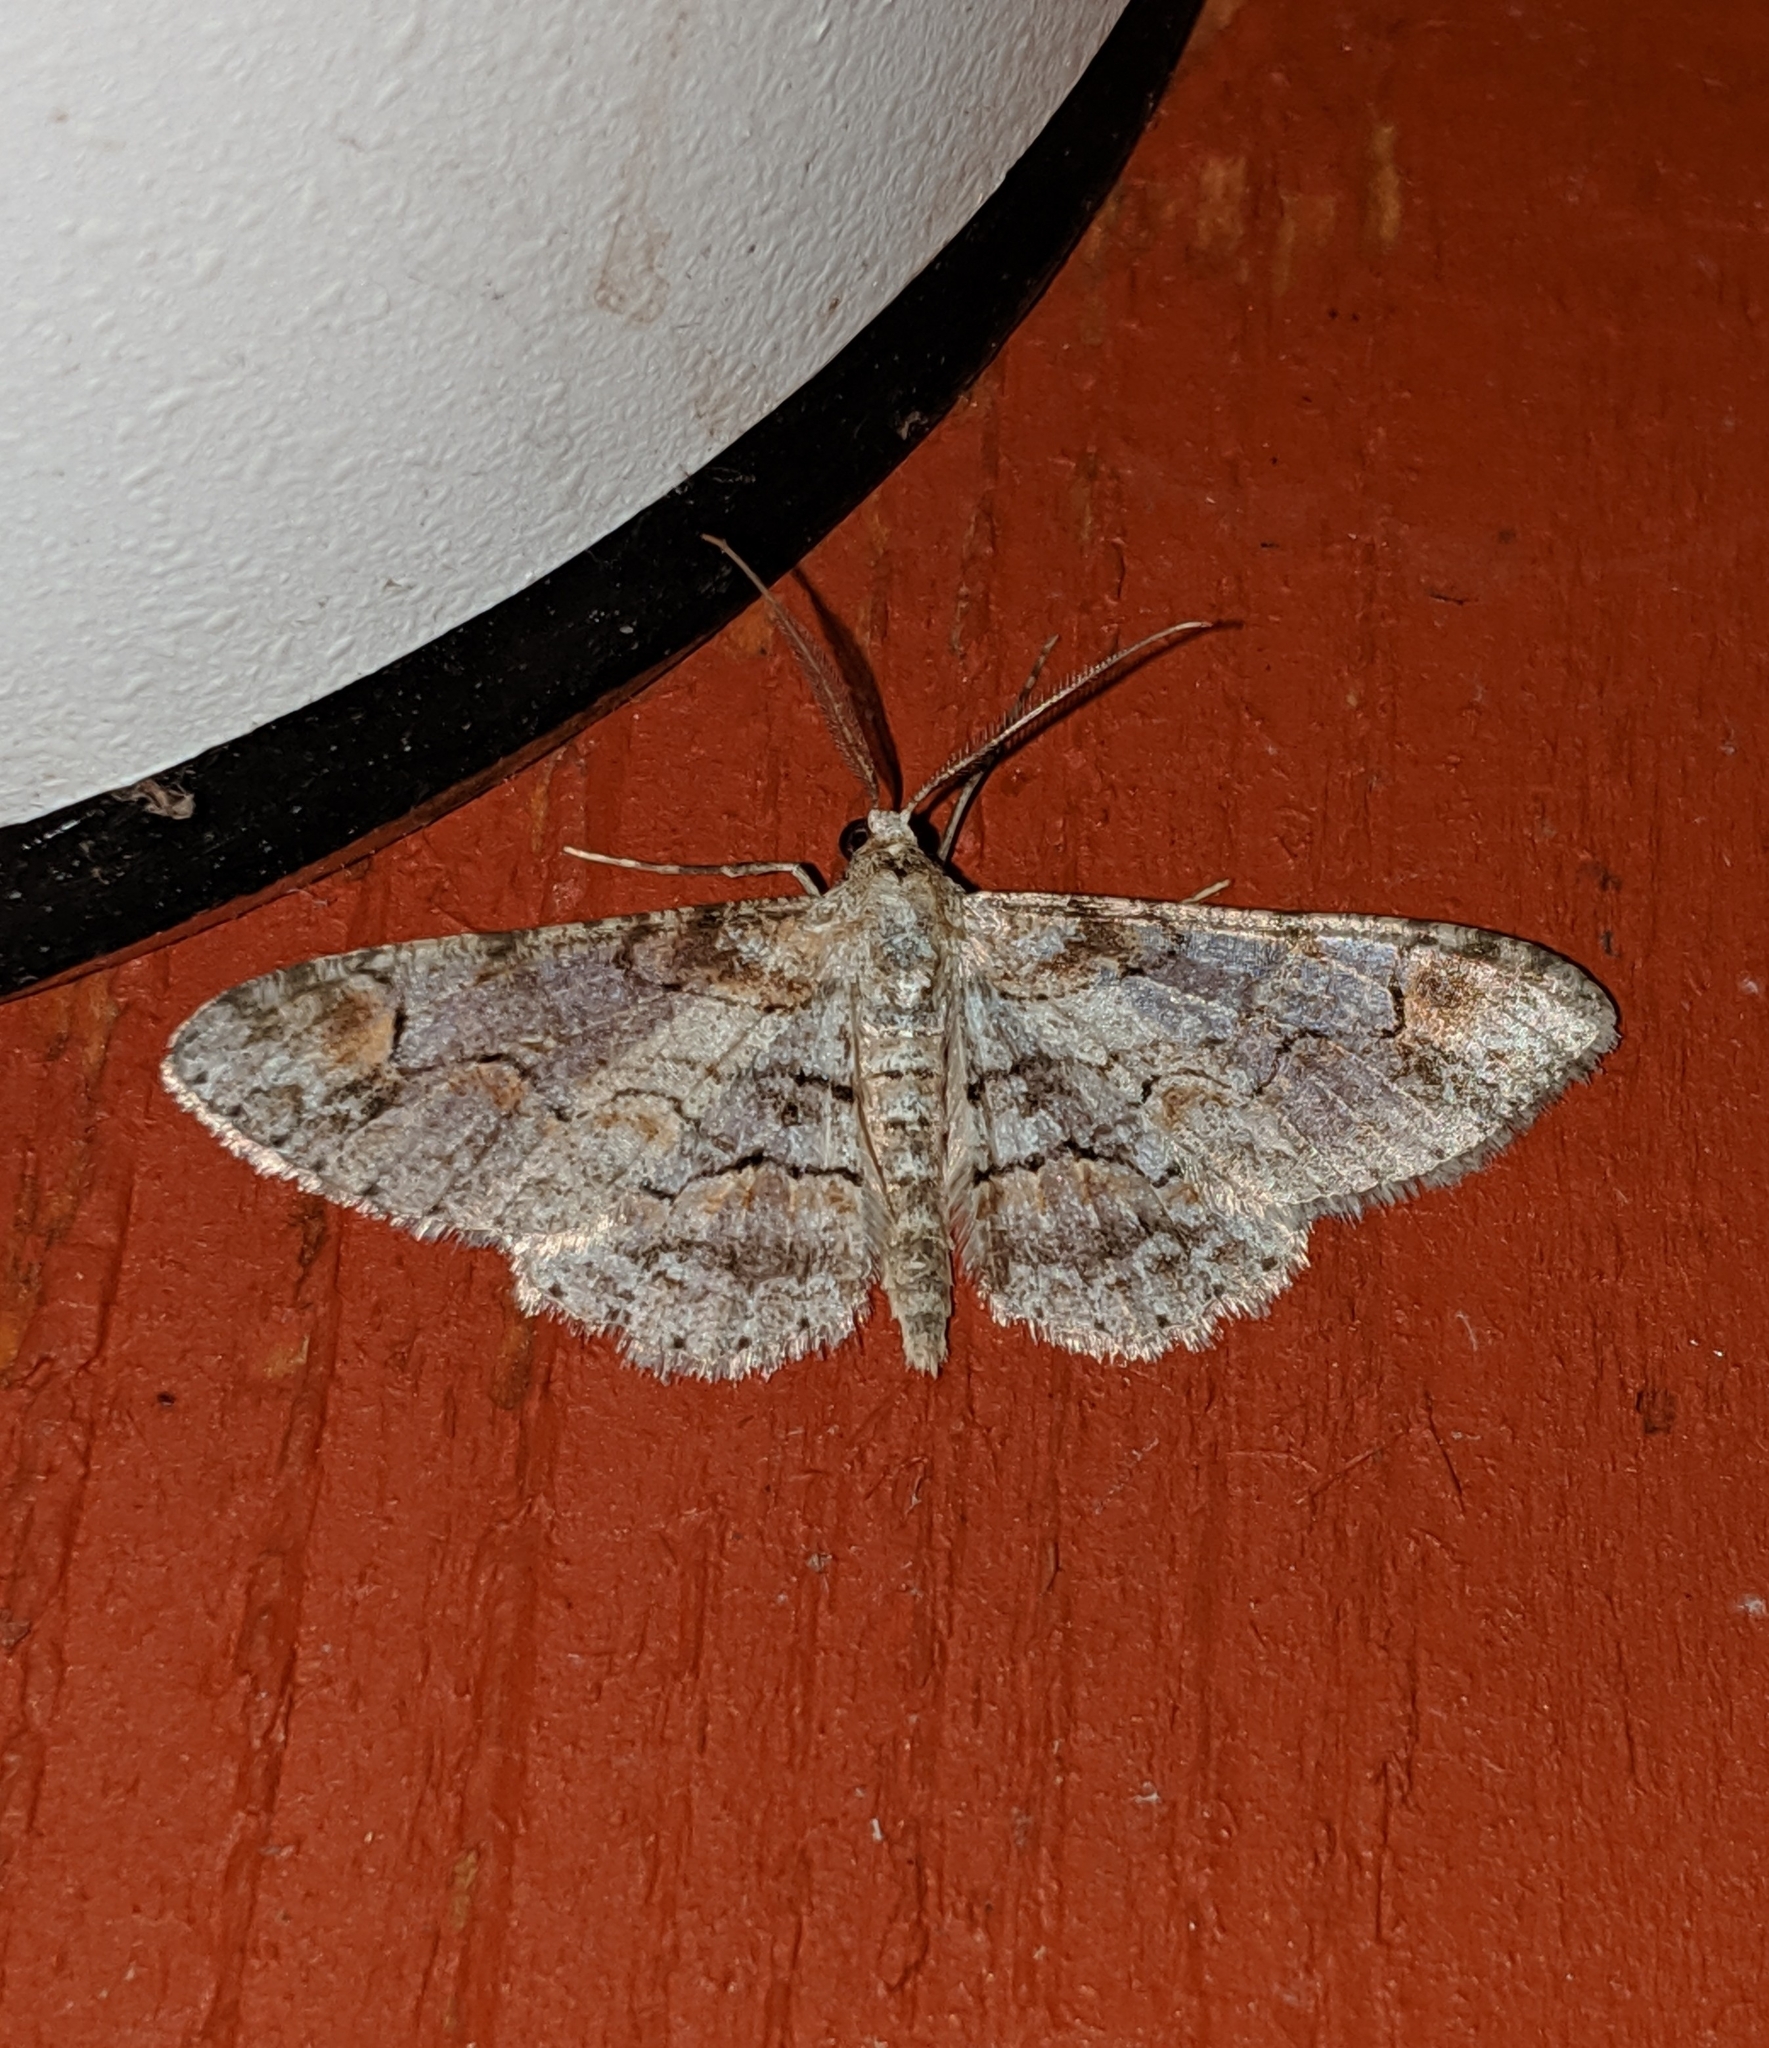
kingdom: Animalia
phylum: Arthropoda
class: Insecta
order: Lepidoptera
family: Geometridae
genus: Iridopsis
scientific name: Iridopsis emasculatum
